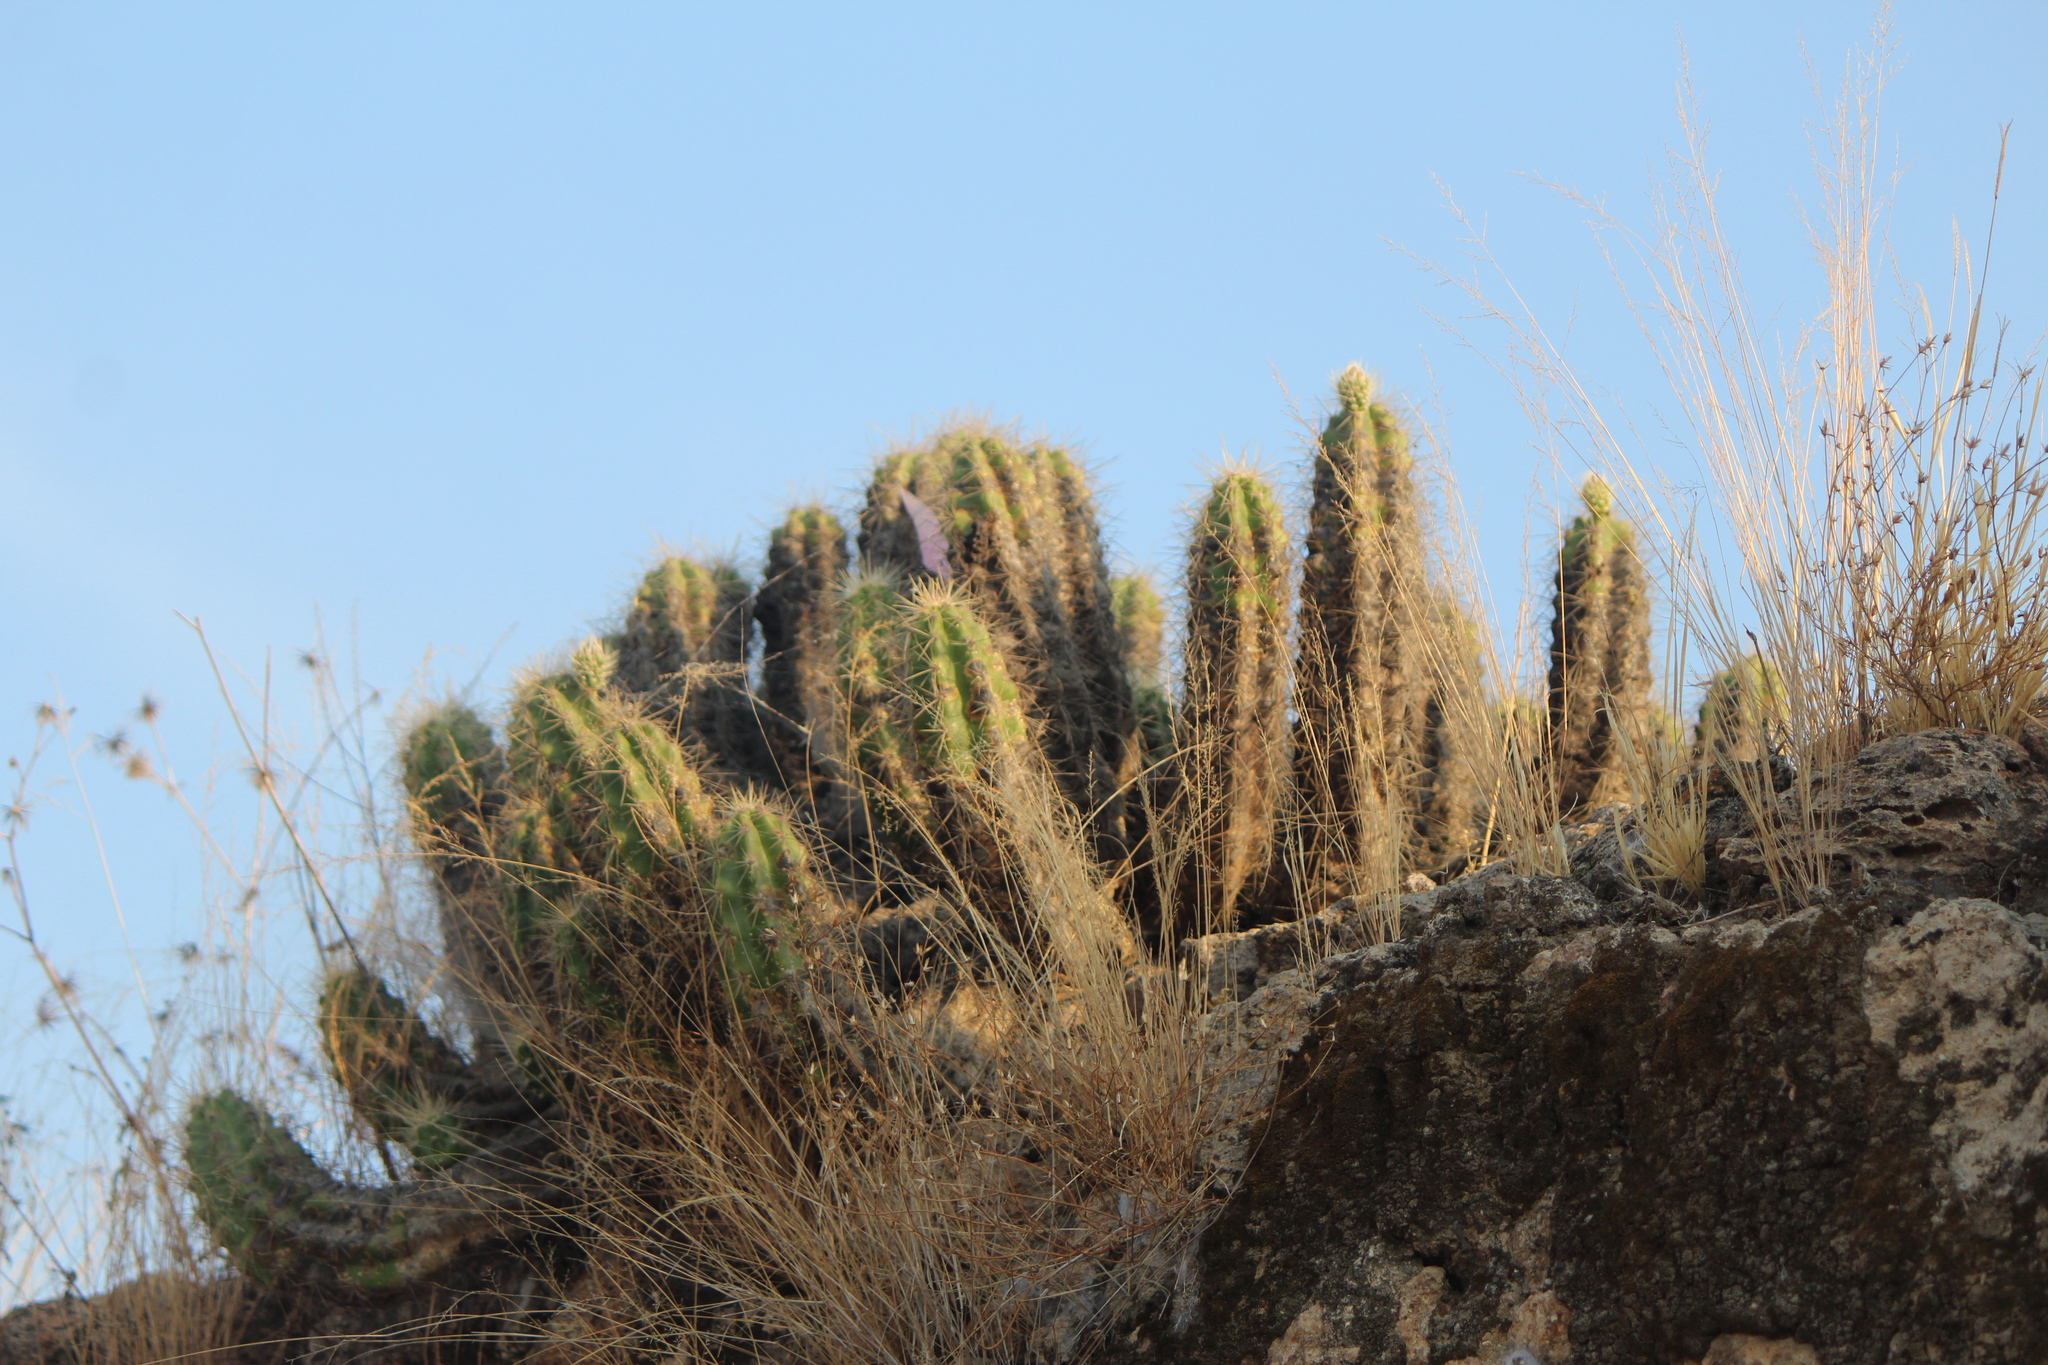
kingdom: Plantae
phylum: Tracheophyta
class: Magnoliopsida
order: Caryophyllales
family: Cactaceae
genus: Echinocereus
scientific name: Echinocereus cinerascens
